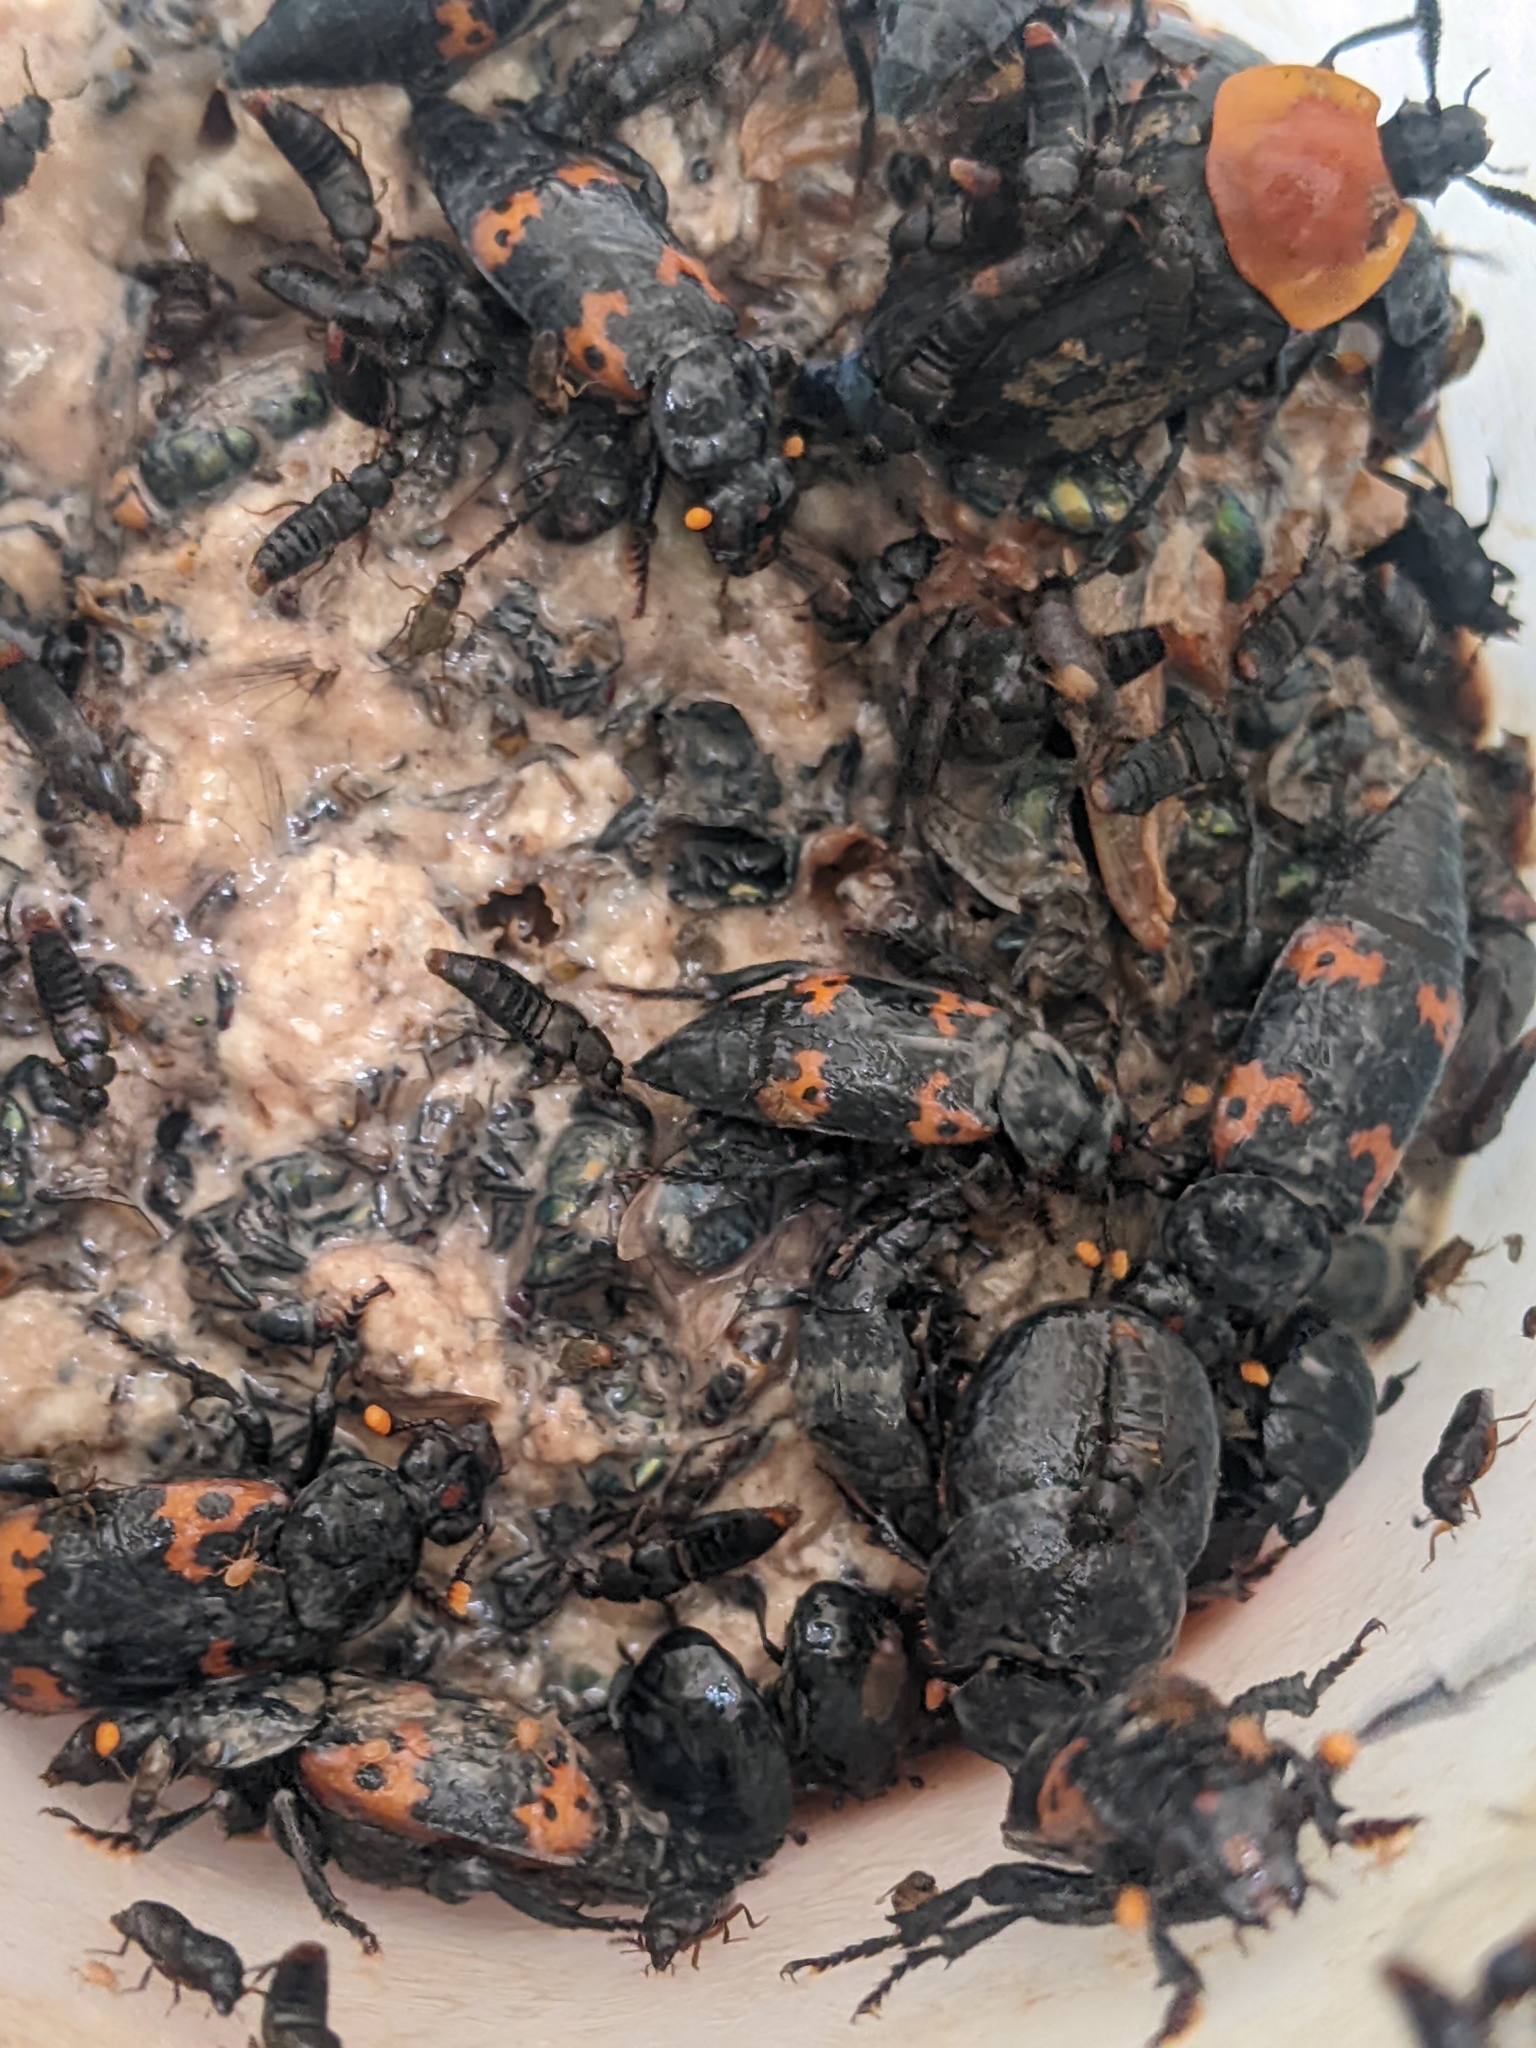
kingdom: Animalia
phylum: Arthropoda
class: Insecta
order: Coleoptera
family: Staphylinidae
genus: Nicrophorus
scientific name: Nicrophorus nepalensis
